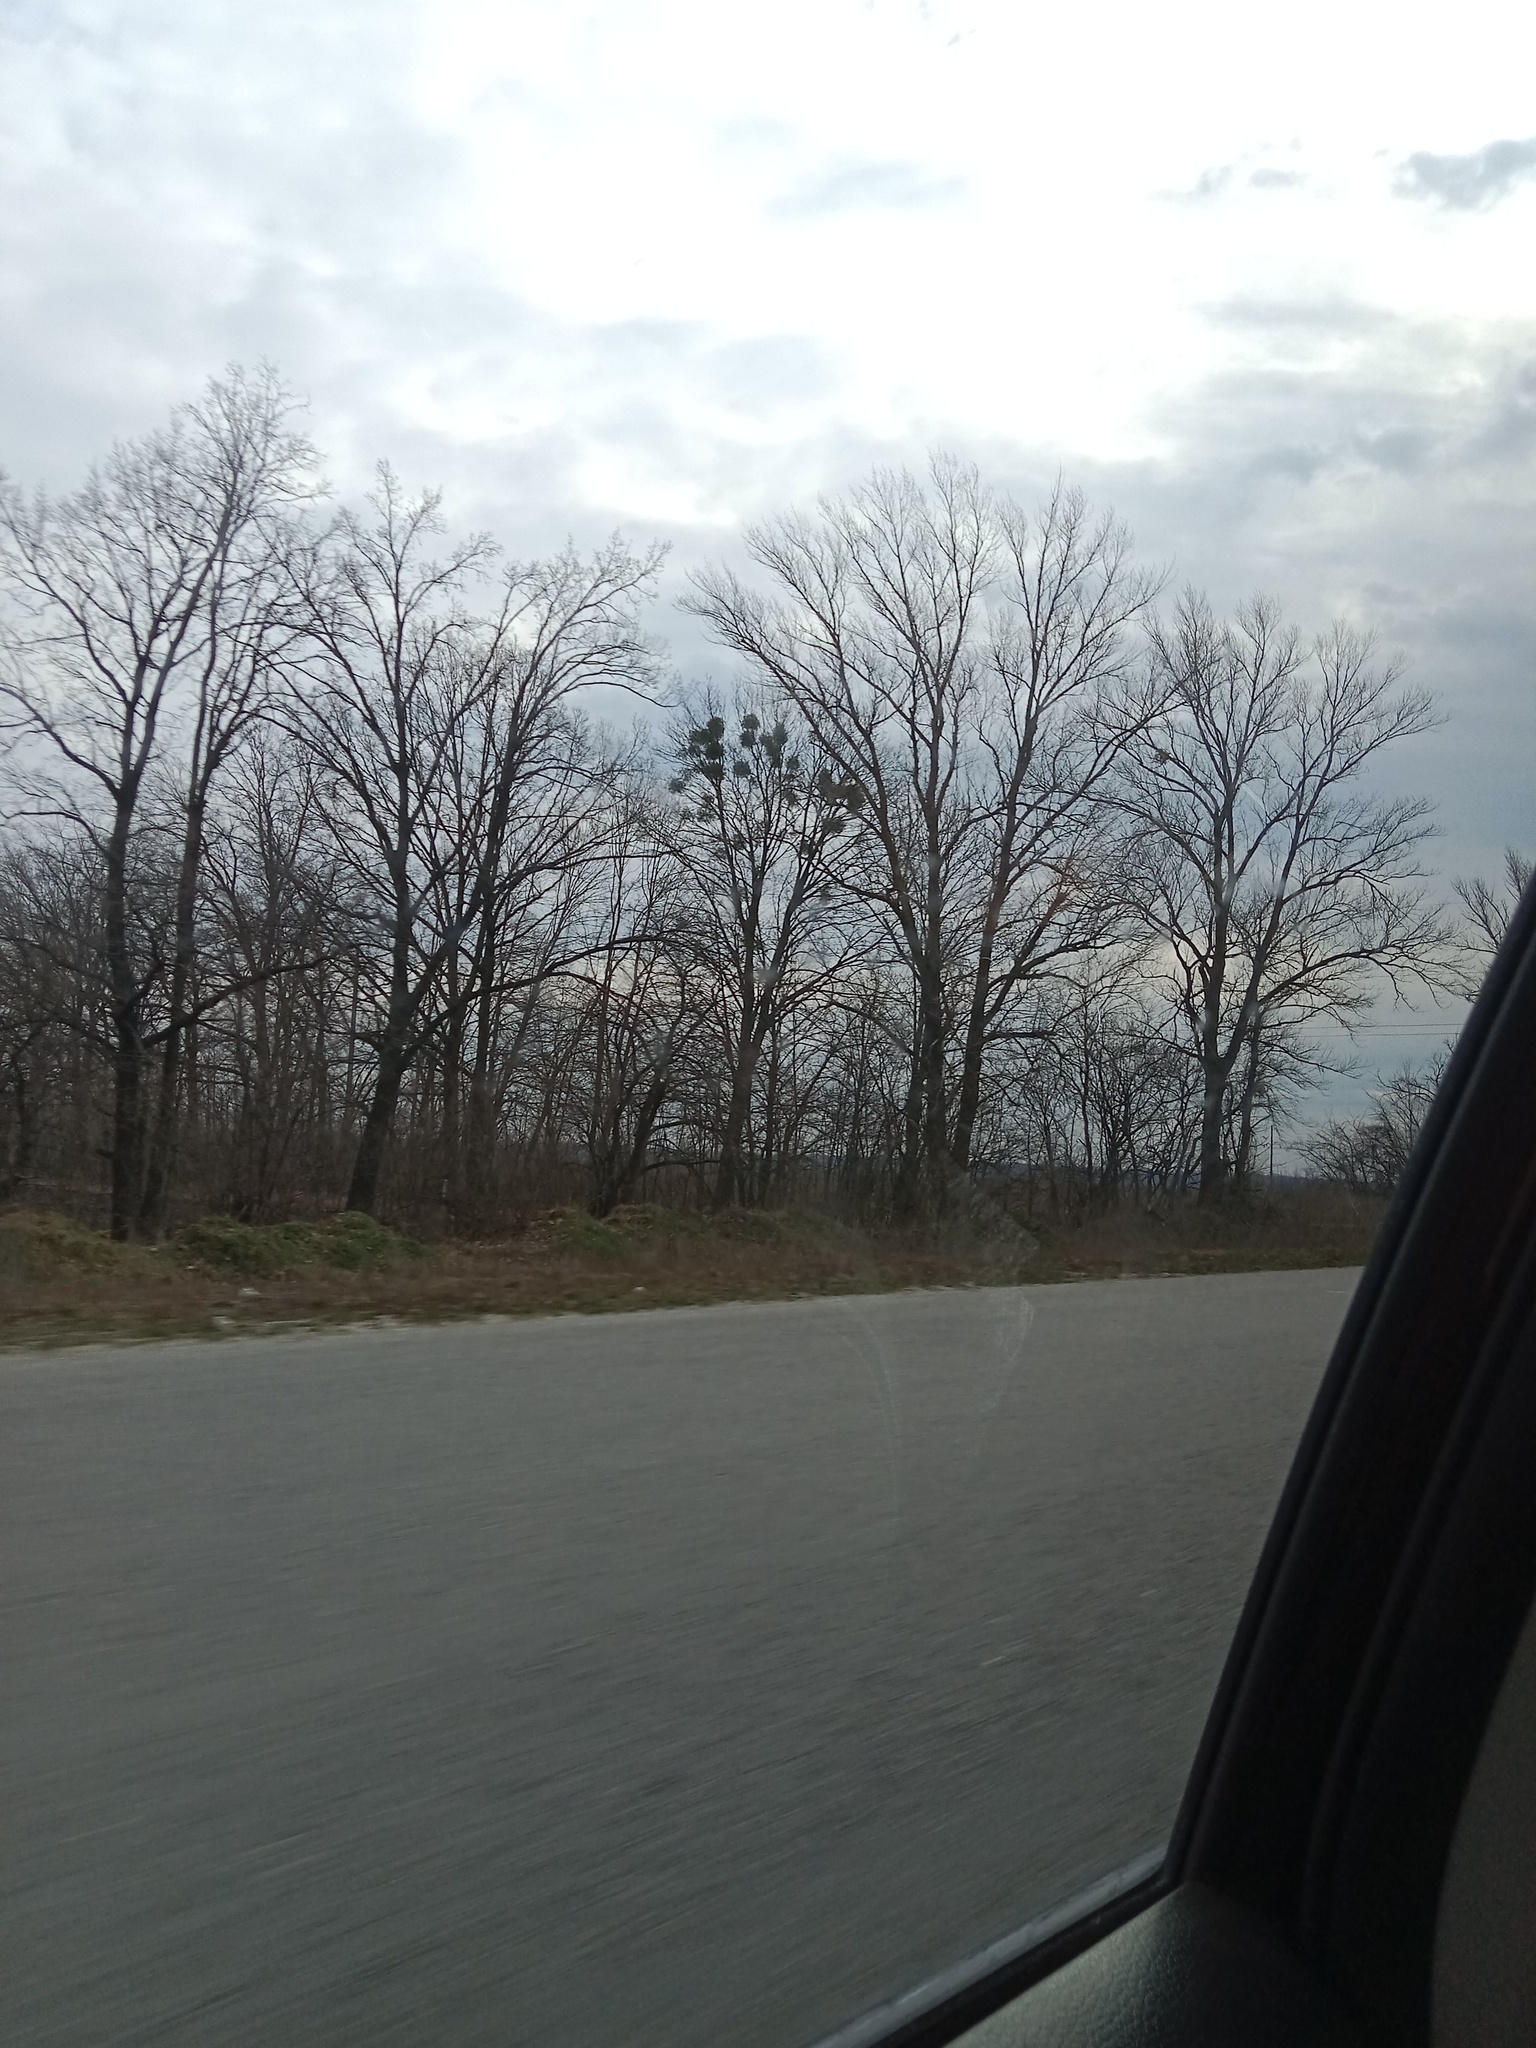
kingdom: Plantae
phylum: Tracheophyta
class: Magnoliopsida
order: Santalales
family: Viscaceae
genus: Viscum
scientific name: Viscum album
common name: Mistletoe
